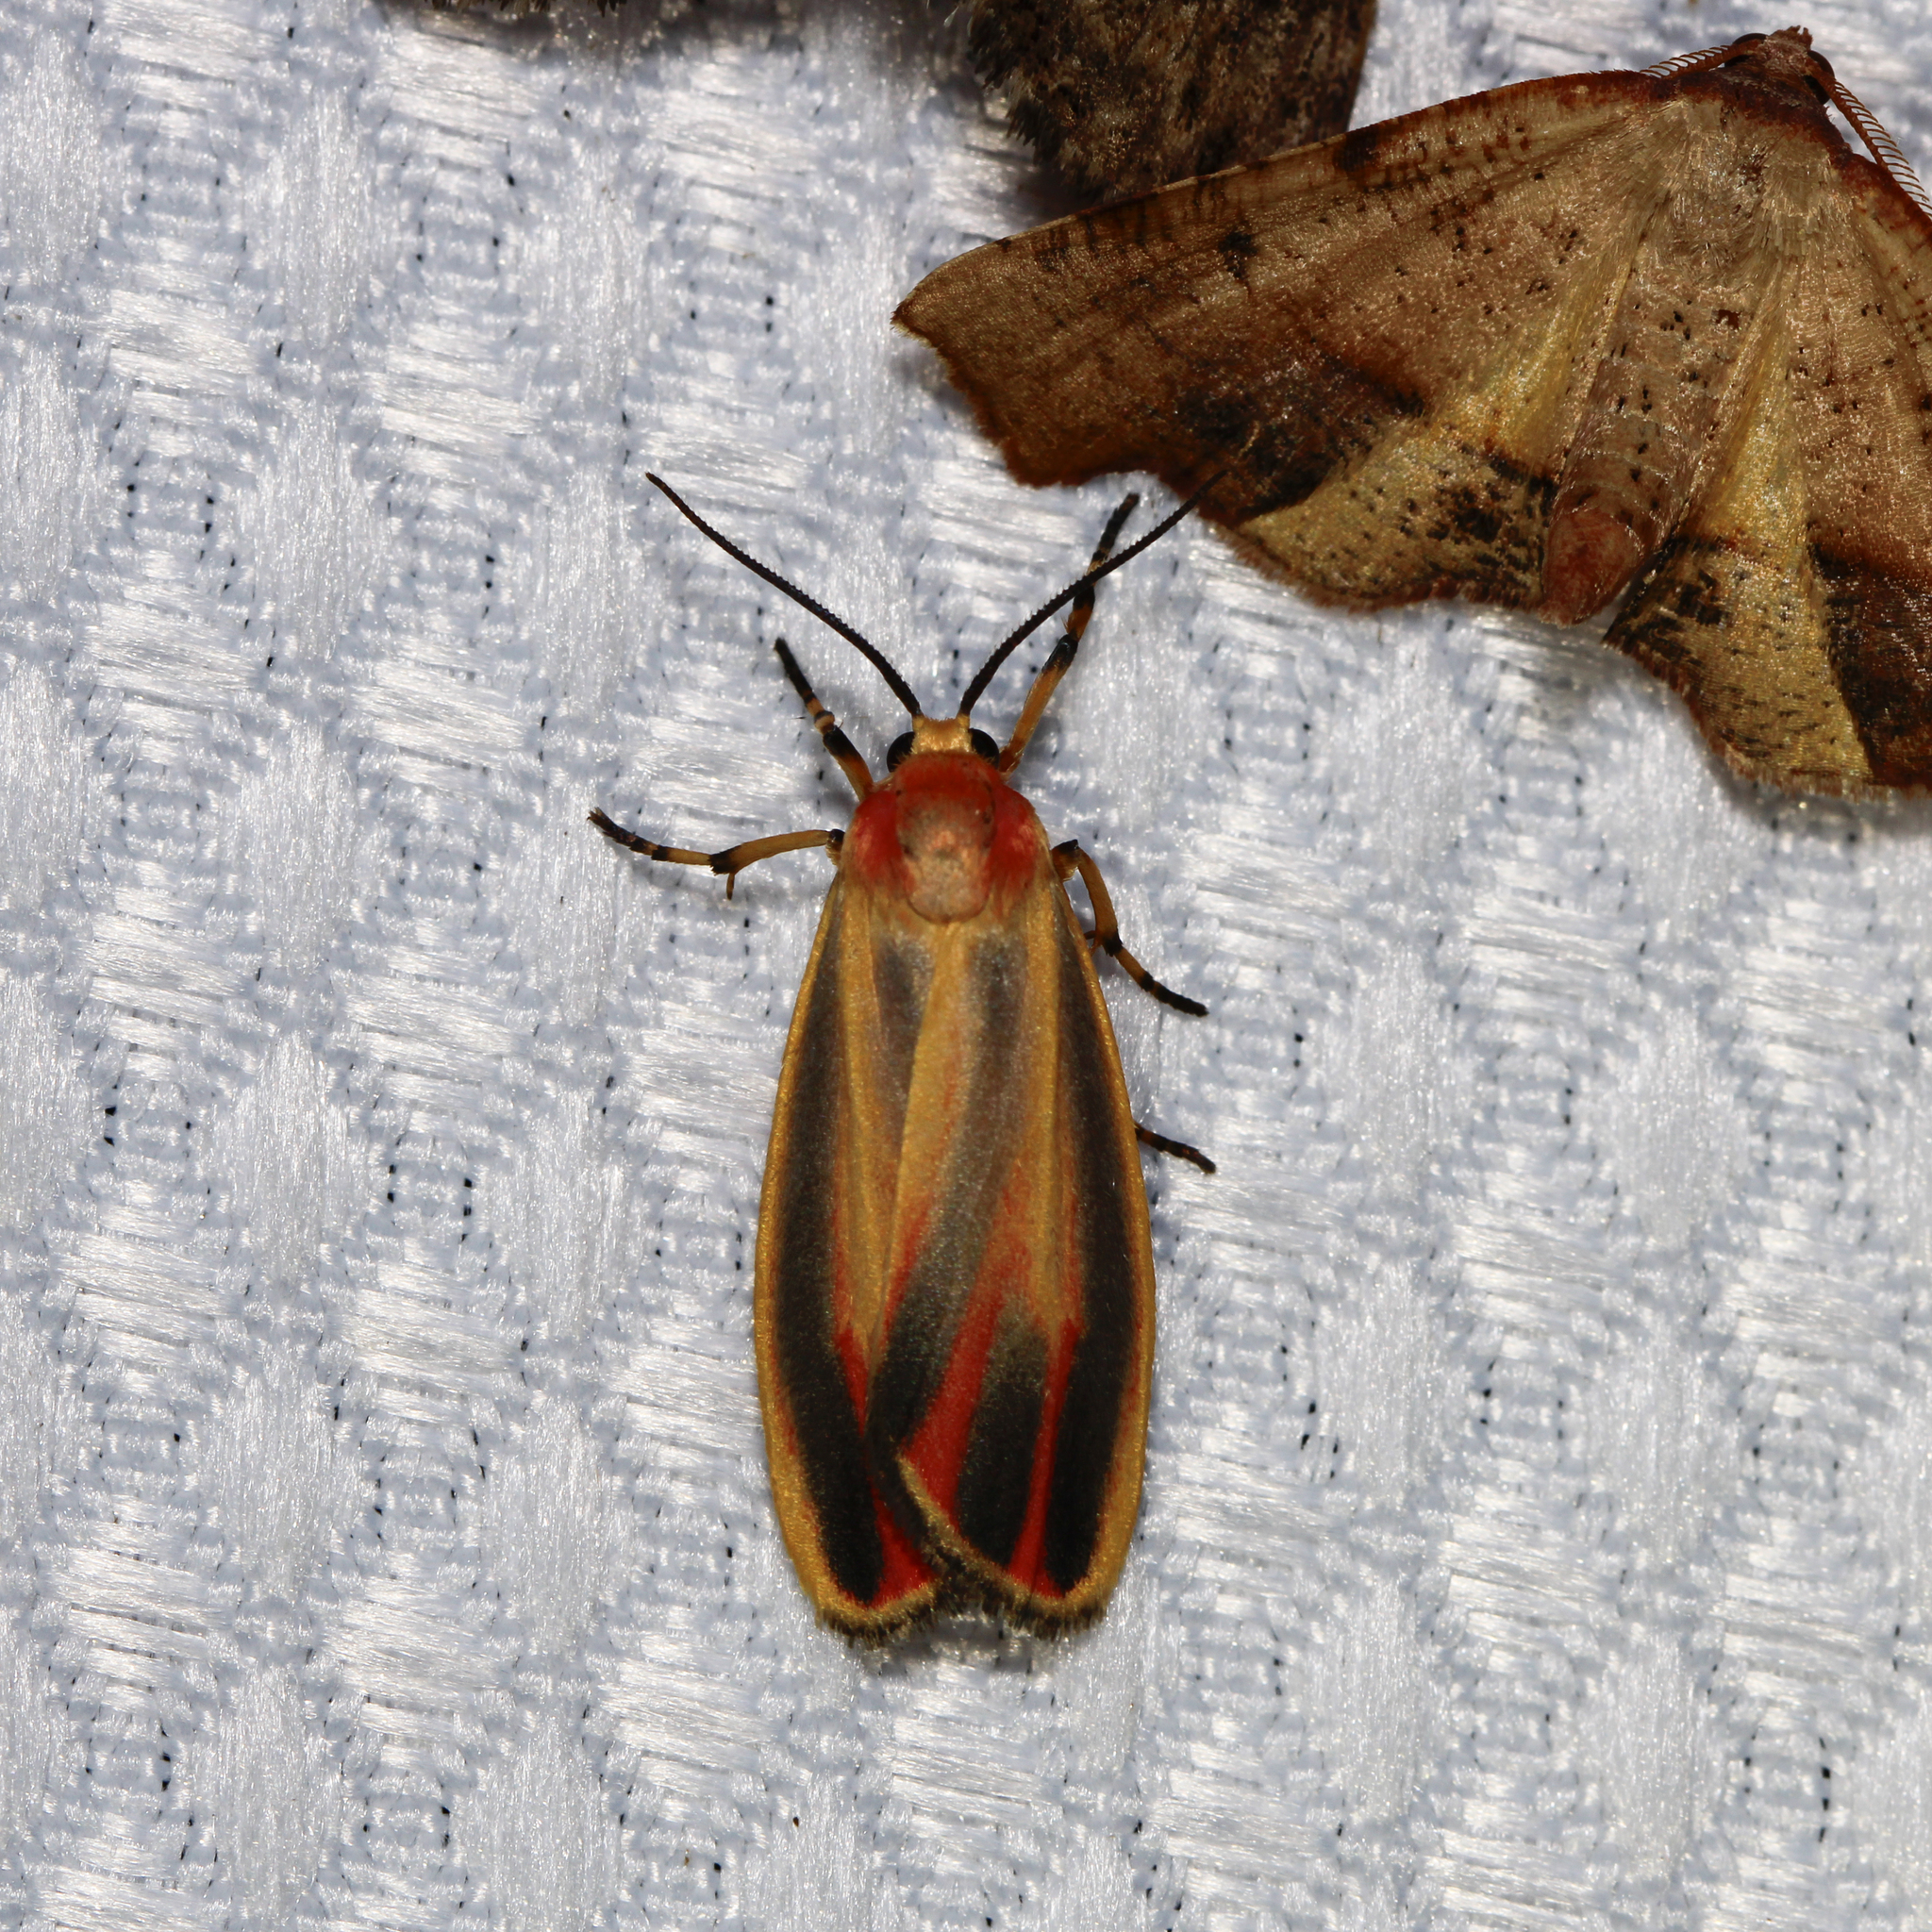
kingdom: Animalia
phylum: Arthropoda
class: Insecta
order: Lepidoptera
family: Erebidae
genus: Hypoprepia
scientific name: Hypoprepia fucosa
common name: Painted lichen moth
